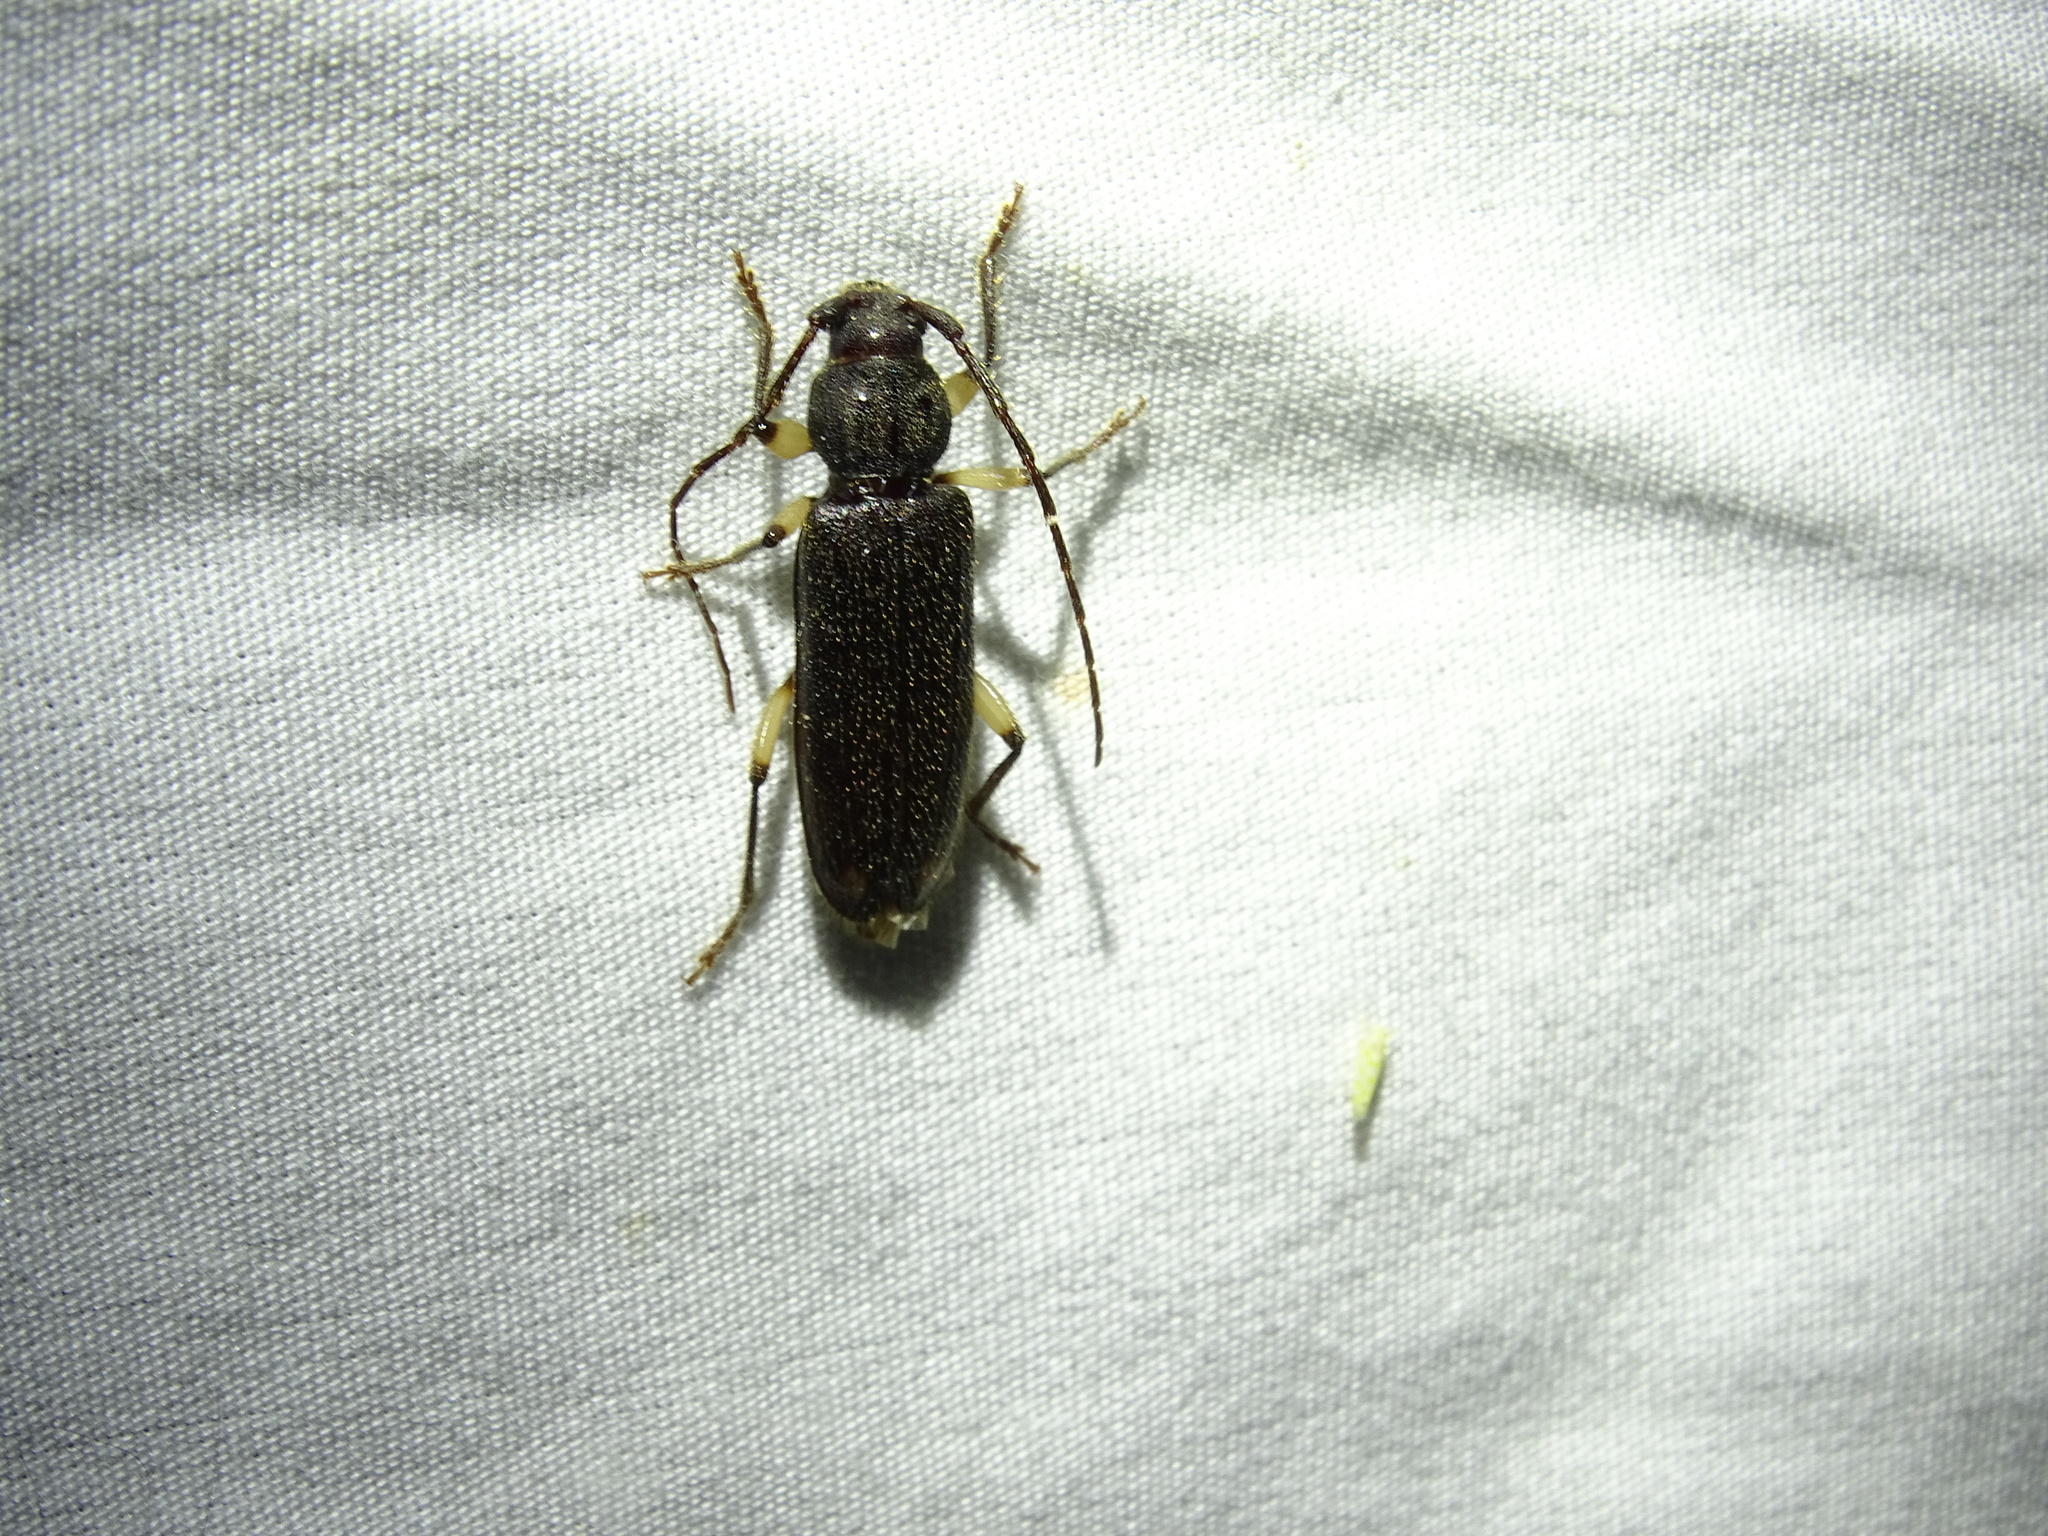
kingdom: Animalia
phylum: Arthropoda
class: Insecta
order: Coleoptera
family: Cerambycidae
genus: Tylonotus
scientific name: Tylonotus bimaculatus
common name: Ash and privet borer
